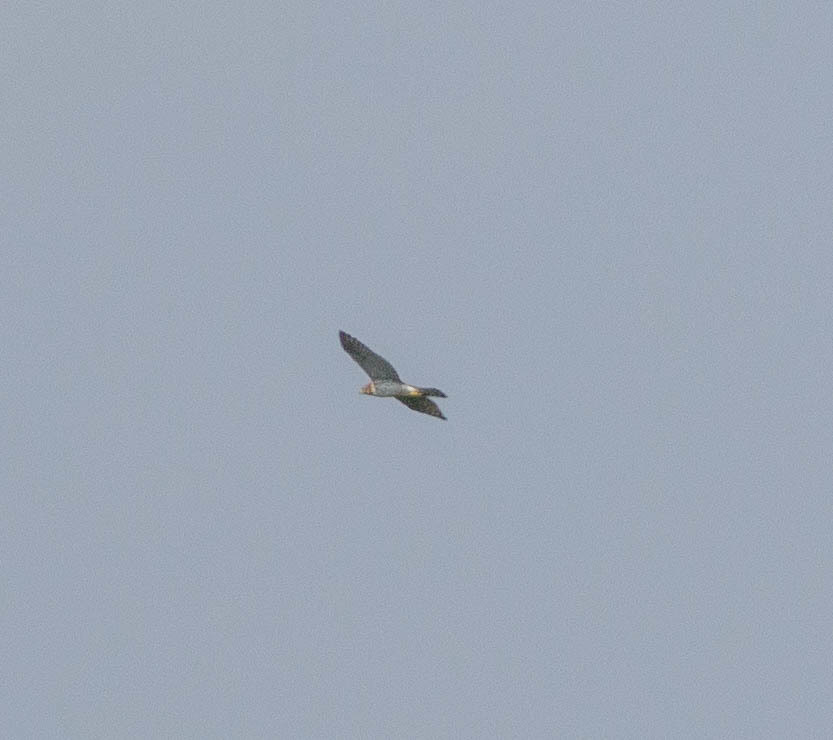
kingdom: Animalia
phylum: Chordata
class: Aves
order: Accipitriformes
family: Accipitridae
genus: Buteo
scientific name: Buteo platypterus
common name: Broad-winged hawk
